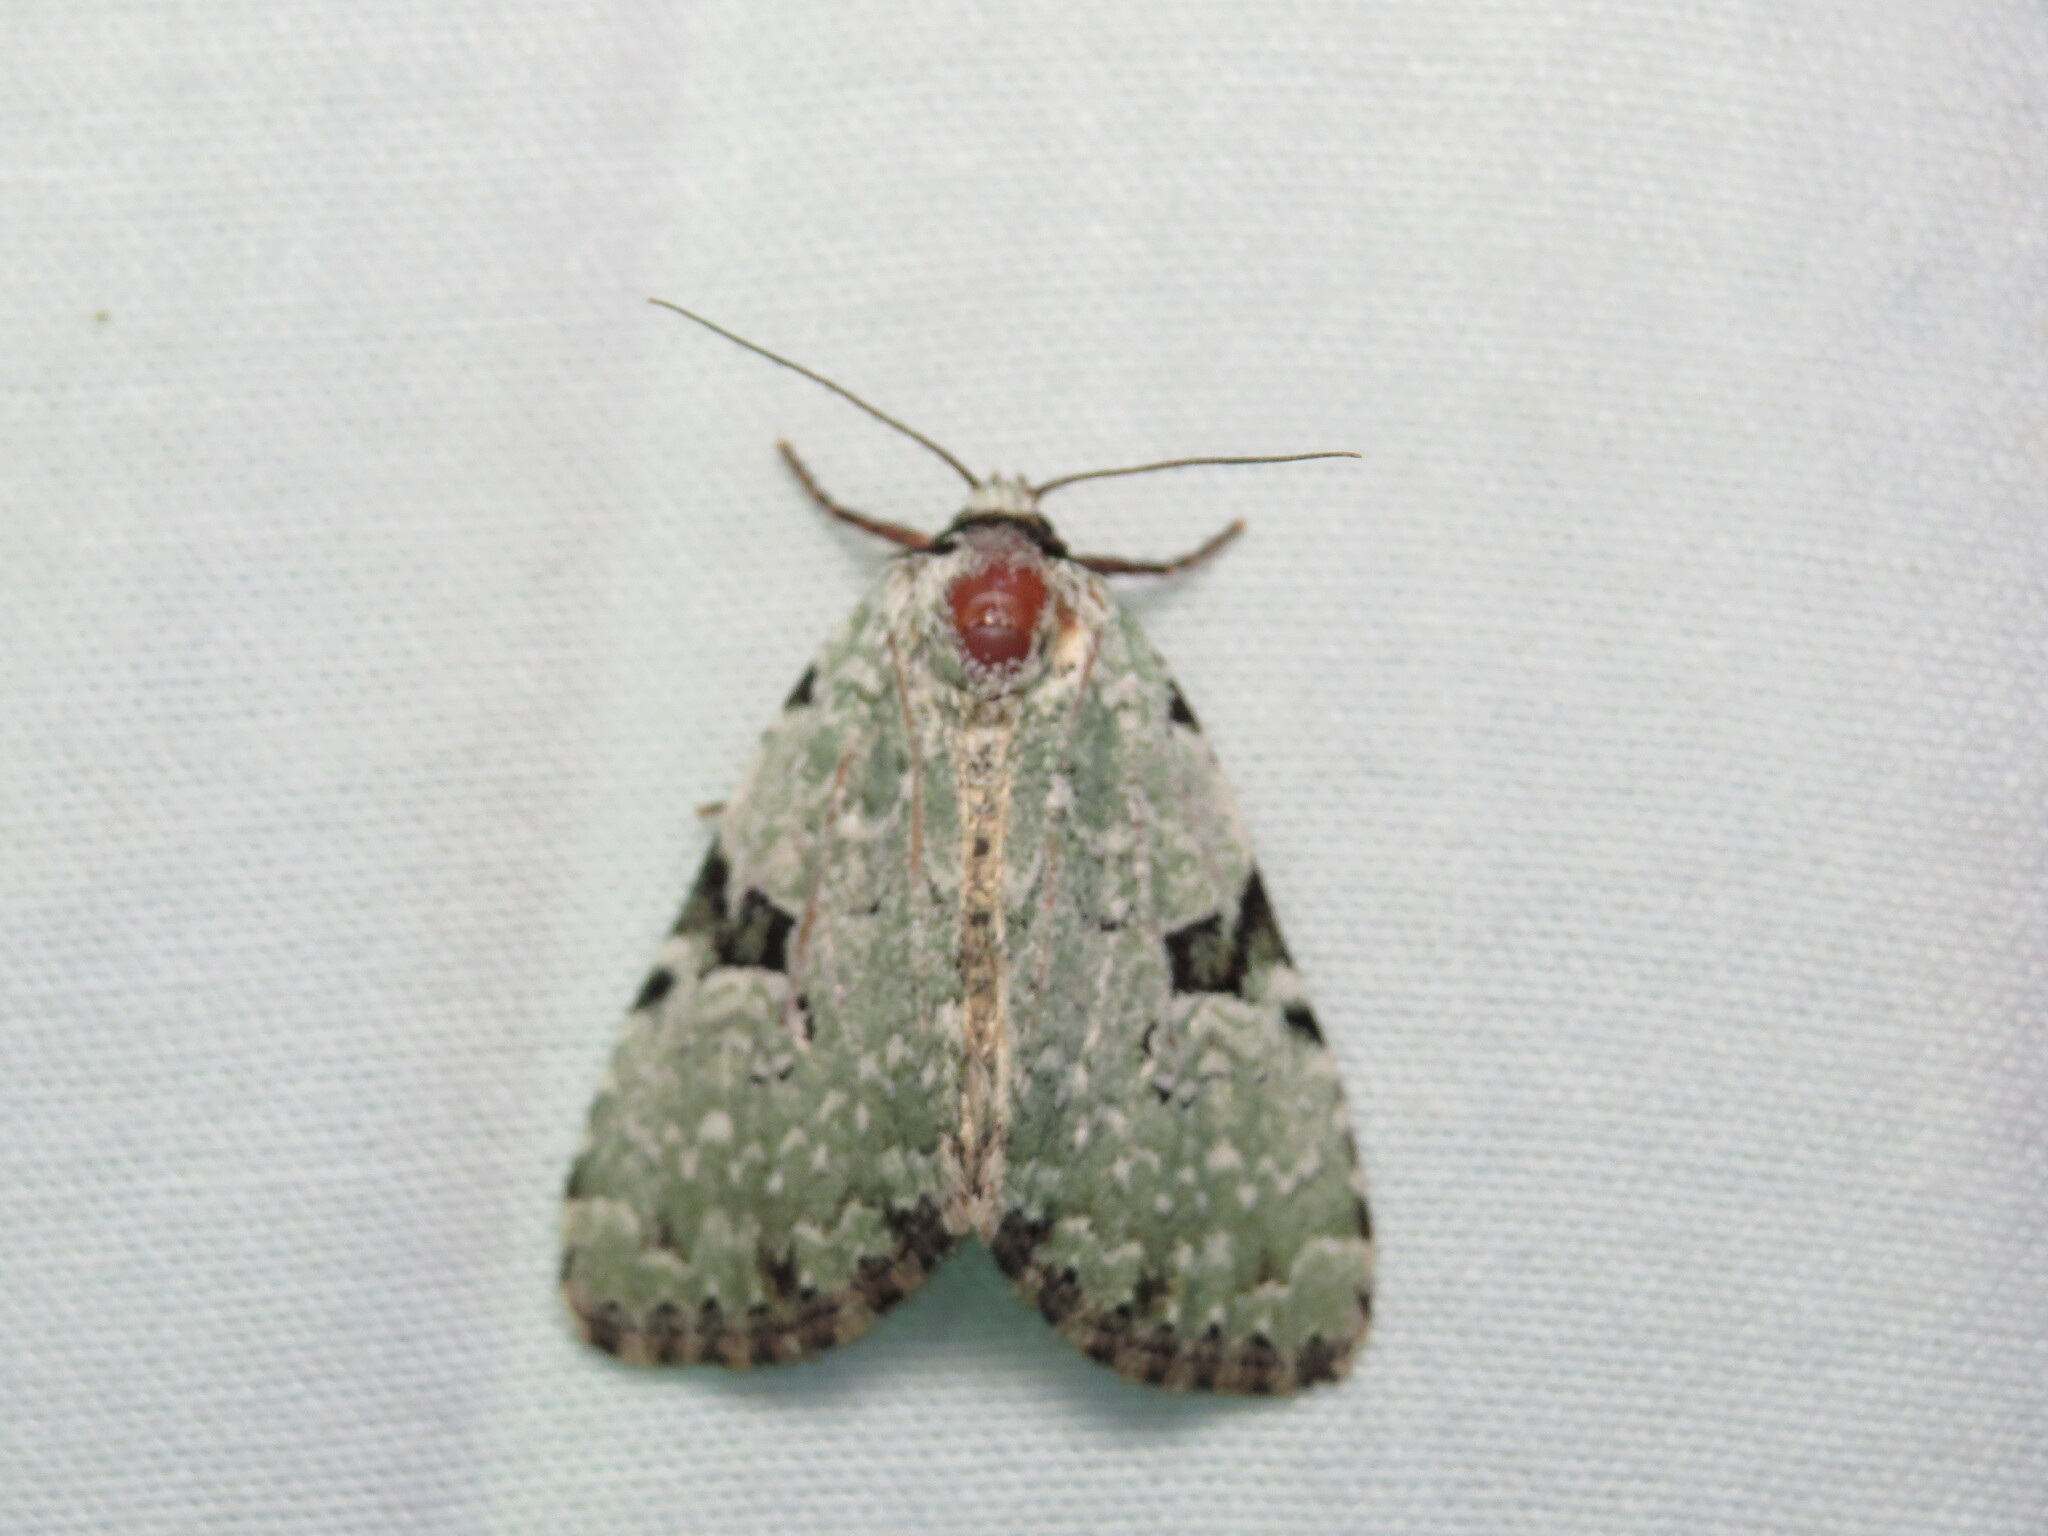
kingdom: Animalia
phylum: Arthropoda
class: Insecta
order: Lepidoptera
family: Noctuidae
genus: Leuconycta
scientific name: Leuconycta diphteroides
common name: Green leuconycta moth
